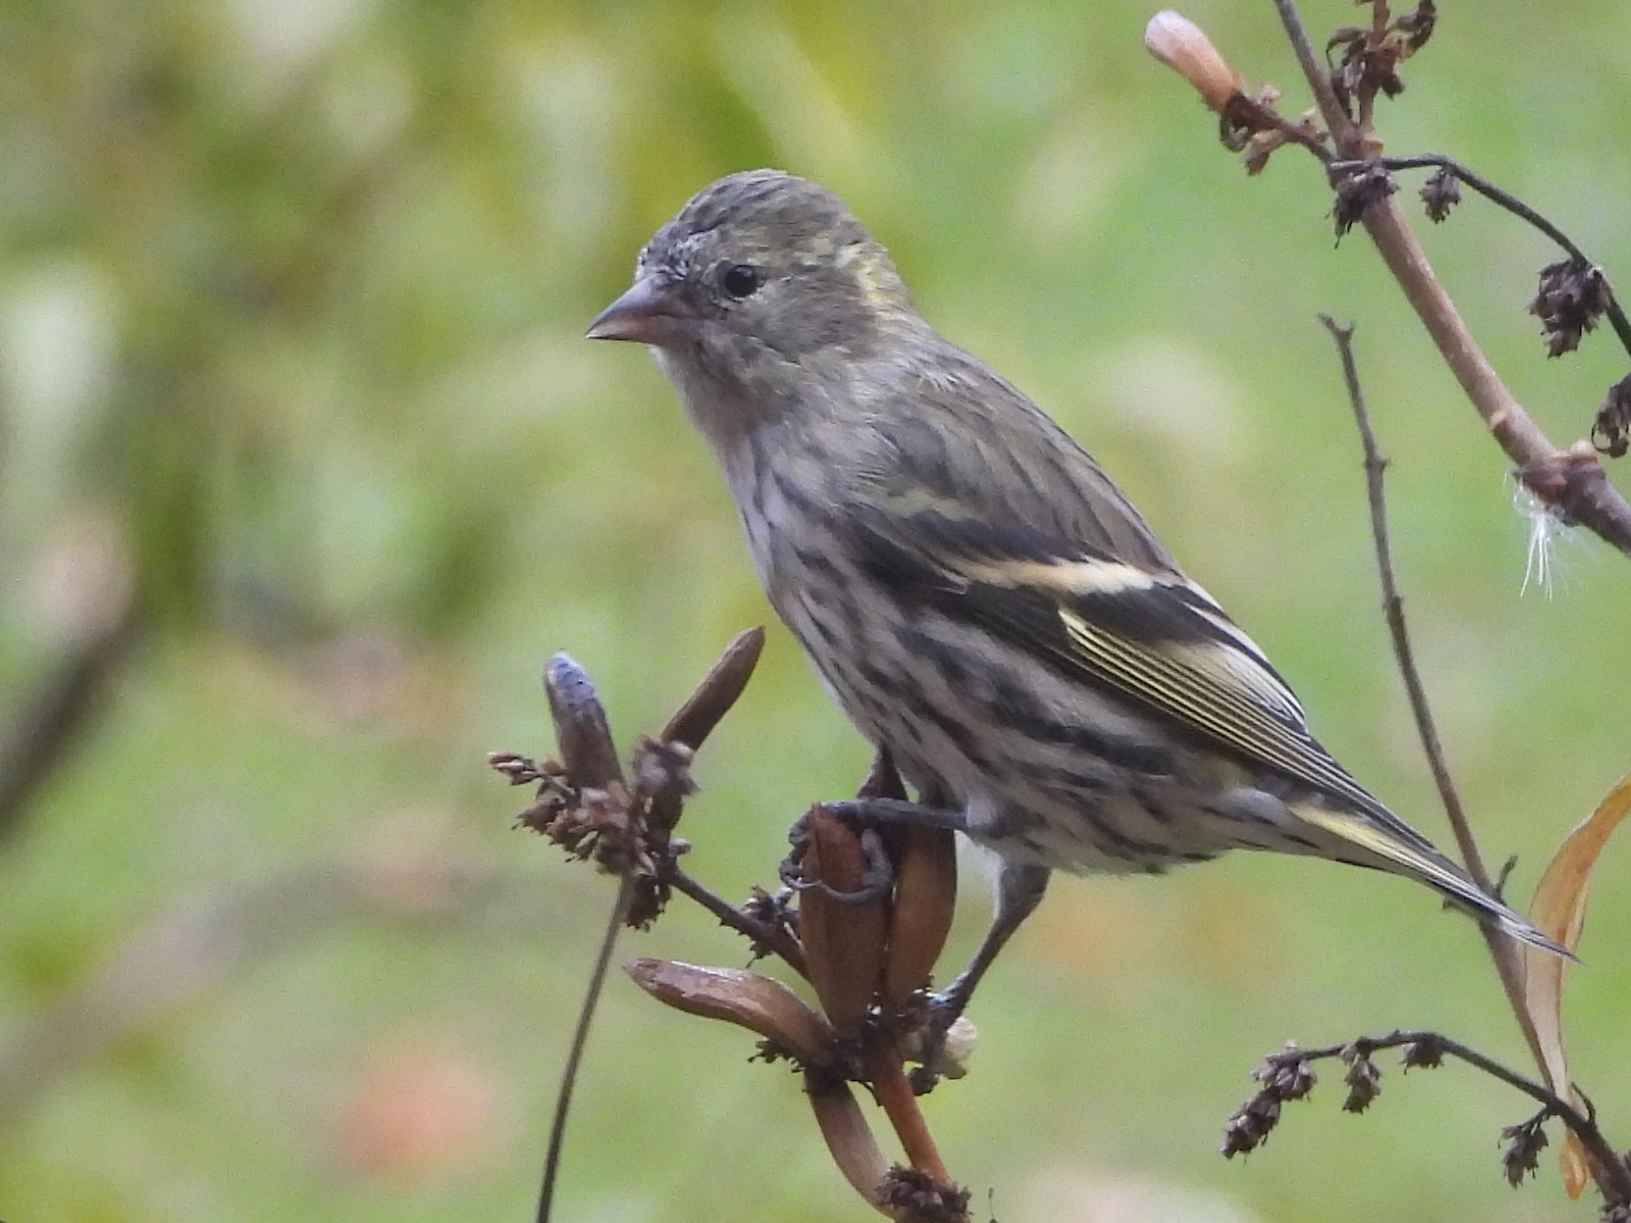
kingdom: Animalia
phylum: Chordata
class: Aves
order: Passeriformes
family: Fringillidae
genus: Spinus
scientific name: Spinus spinus
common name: Eurasian siskin
